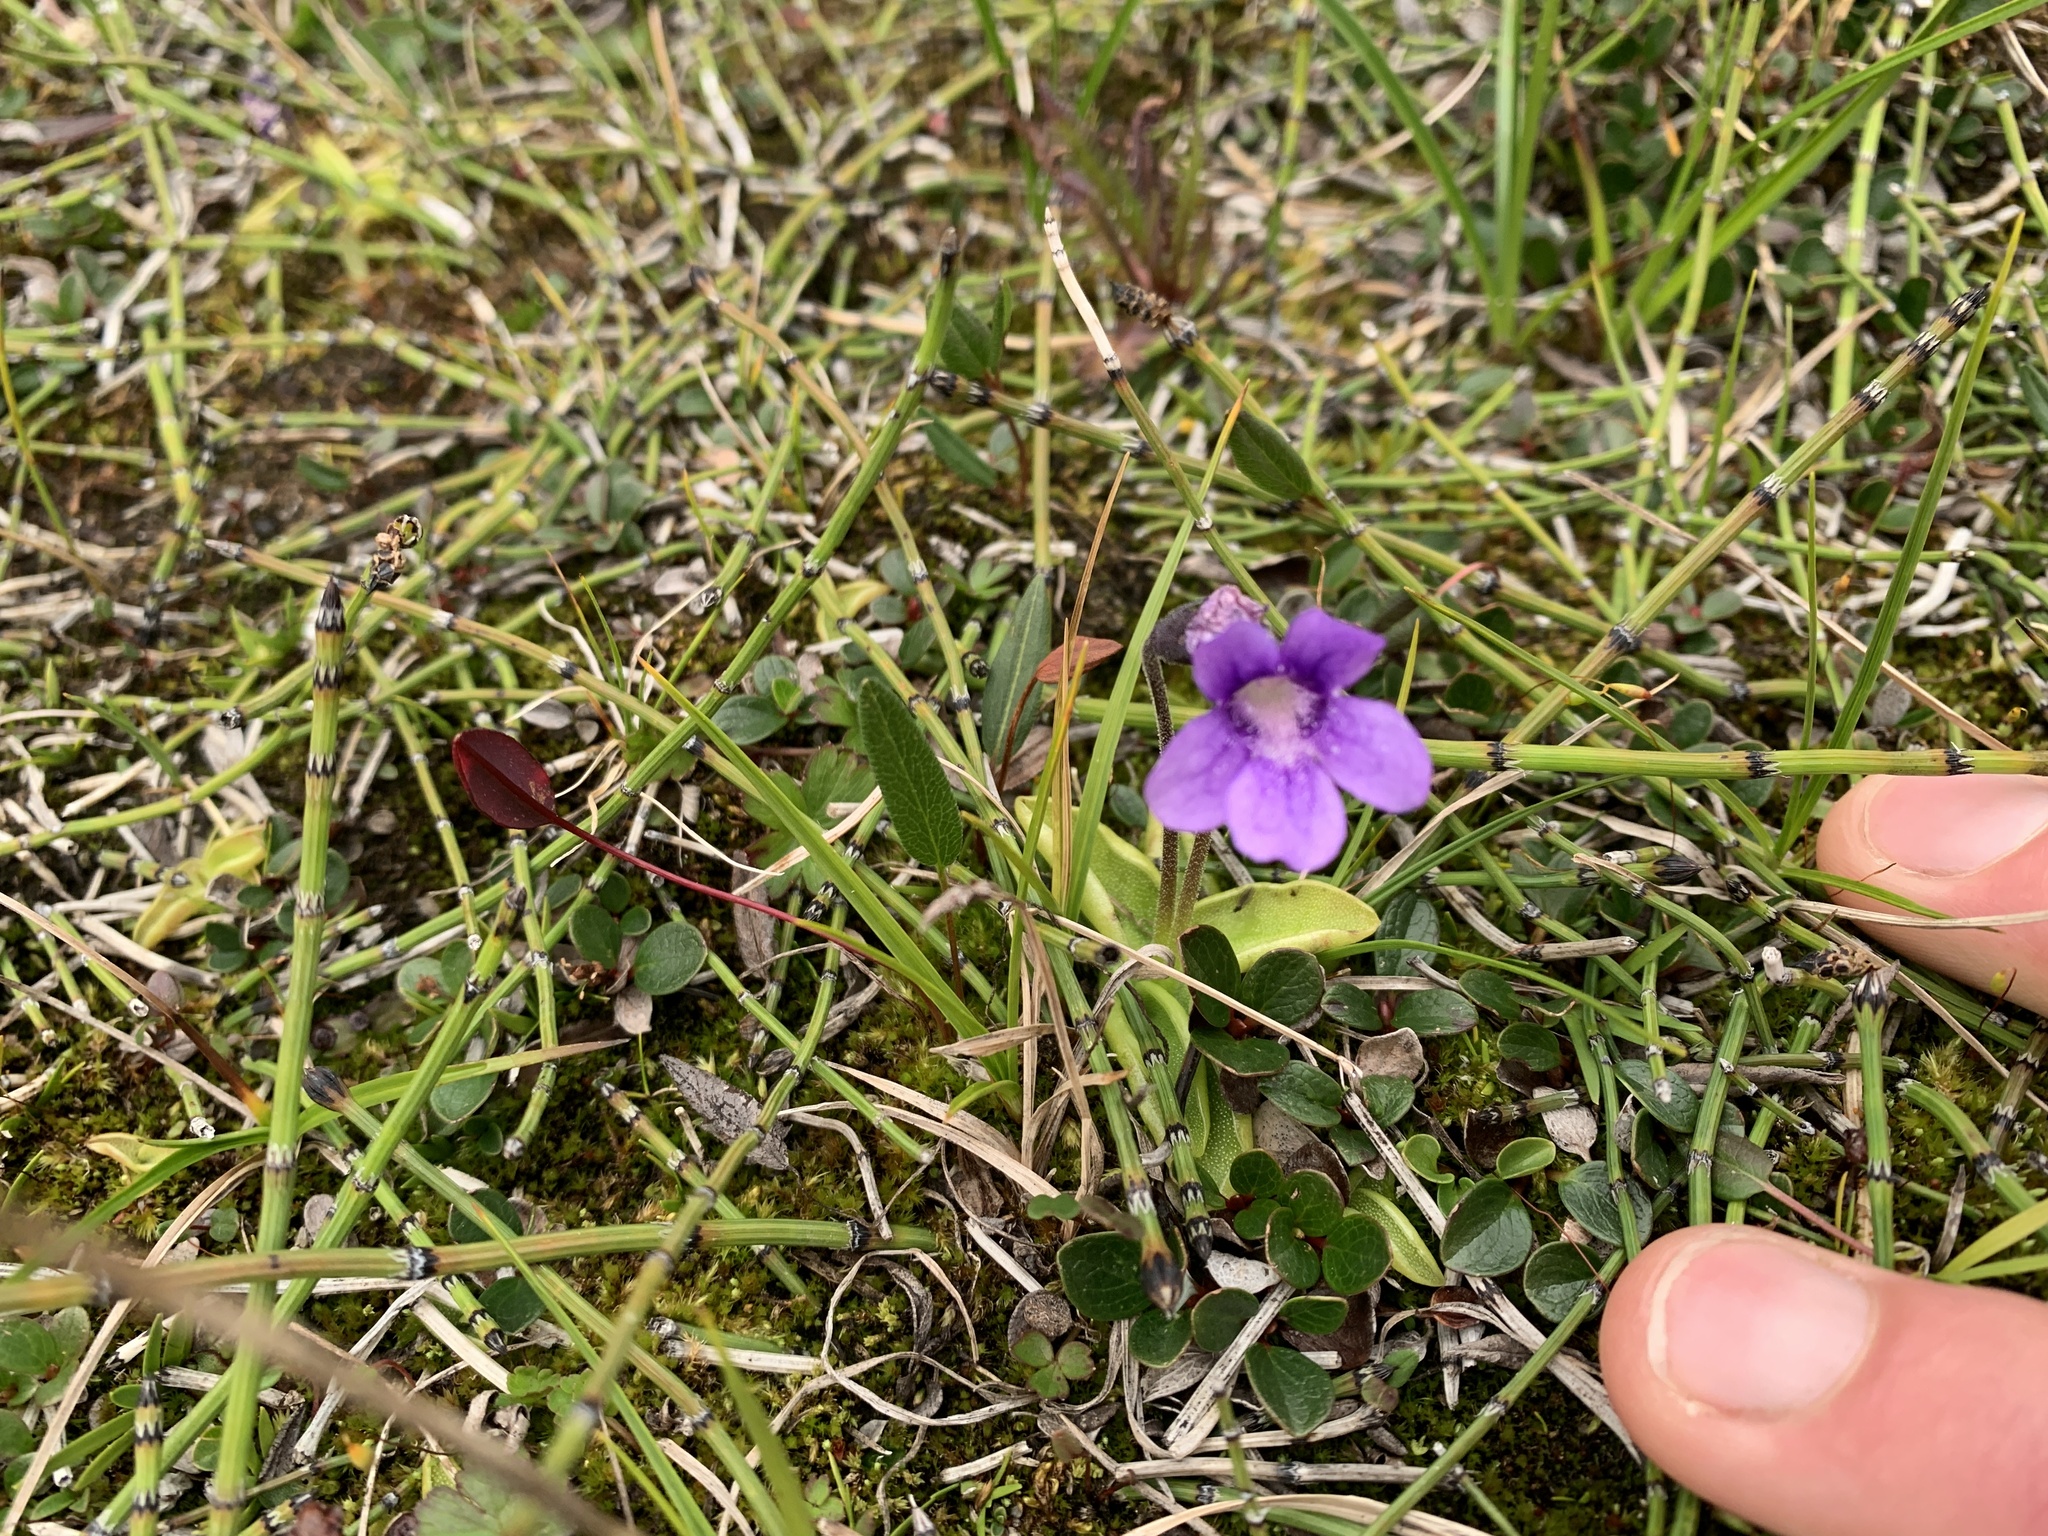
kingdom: Plantae
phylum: Tracheophyta
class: Magnoliopsida
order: Lamiales
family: Lentibulariaceae
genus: Pinguicula
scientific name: Pinguicula macroceras
